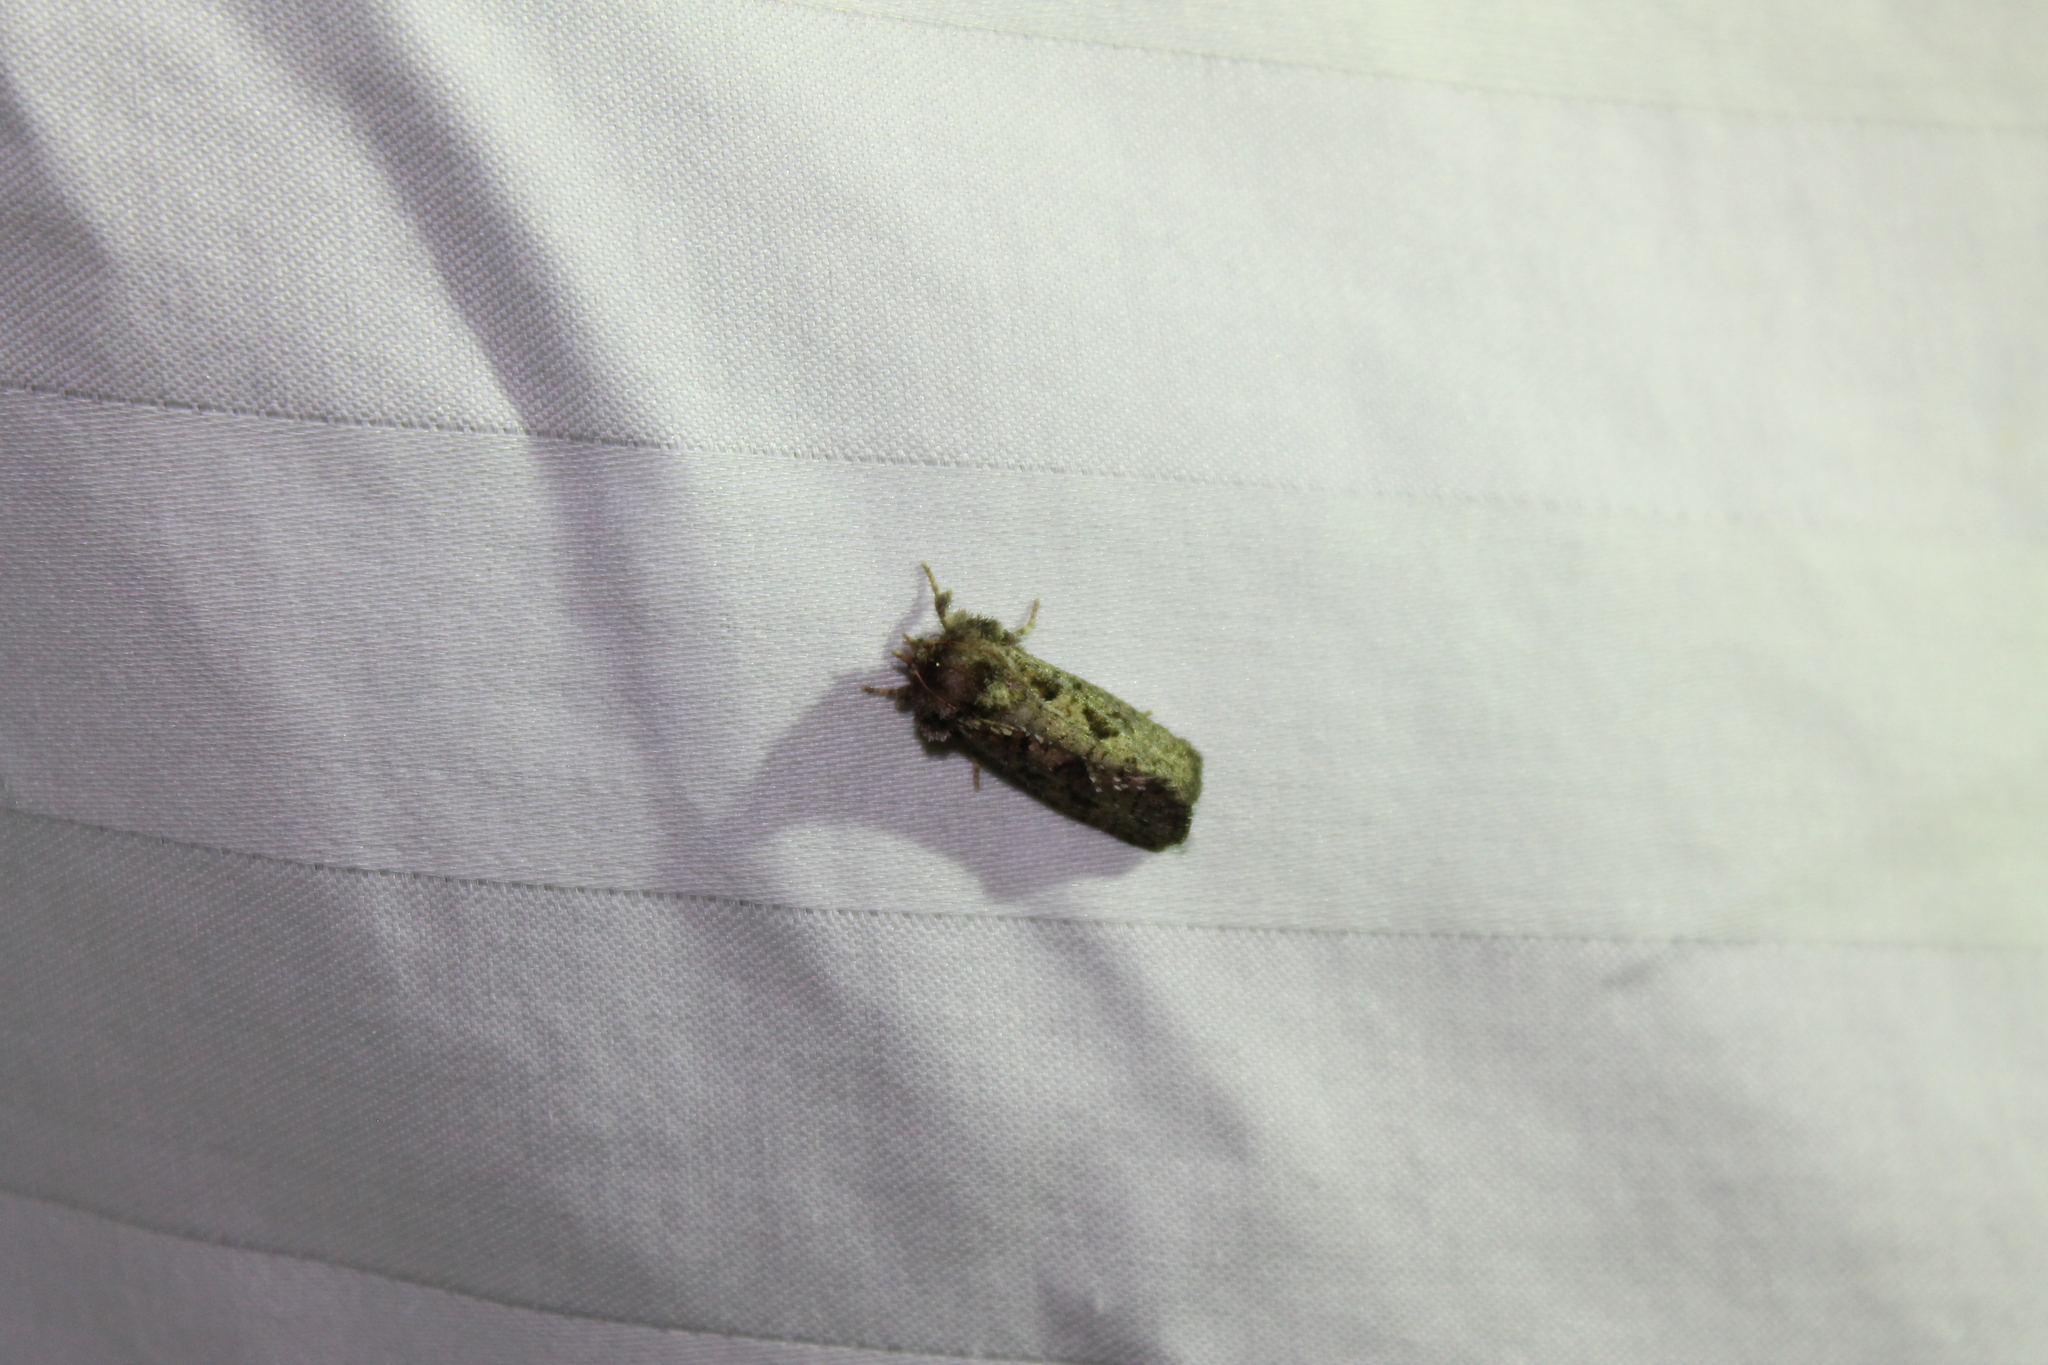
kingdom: Animalia
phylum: Arthropoda
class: Insecta
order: Lepidoptera
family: Tineidae
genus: Acrolophus
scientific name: Acrolophus arcanella
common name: Arcane grass tubeworm moth
